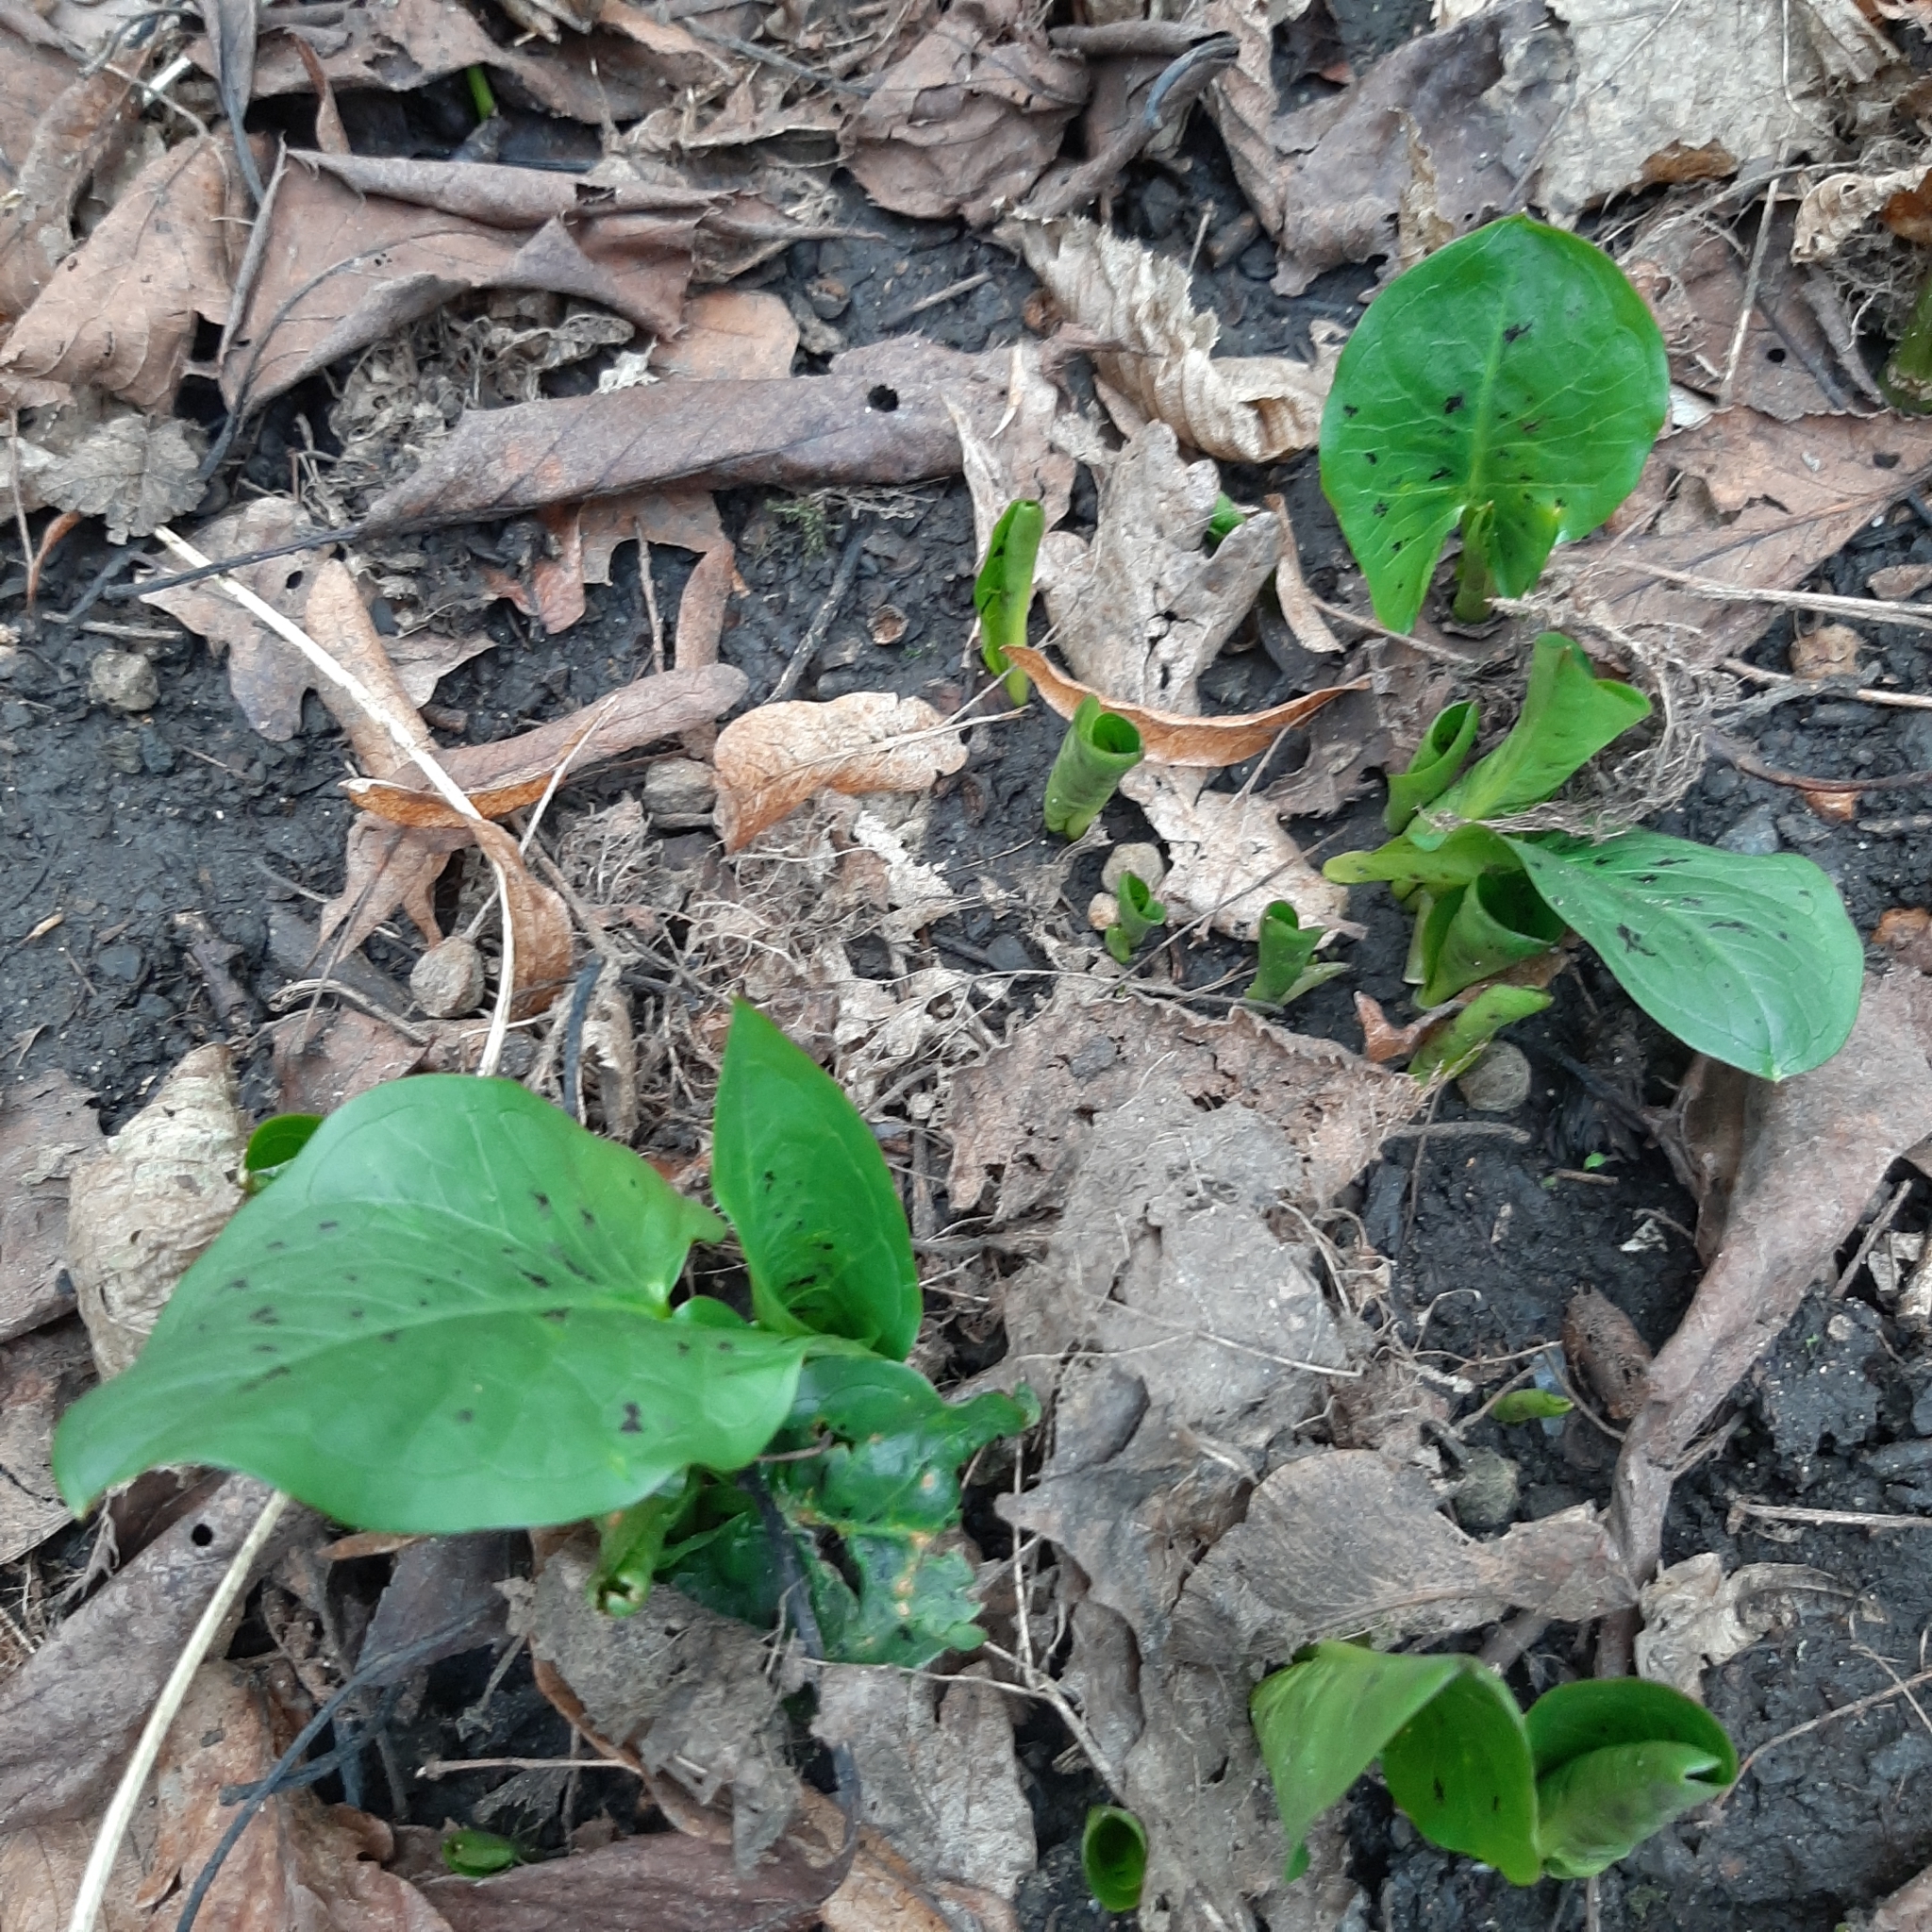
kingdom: Plantae
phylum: Tracheophyta
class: Liliopsida
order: Alismatales
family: Araceae
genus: Arum
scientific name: Arum maculatum
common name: Lords-and-ladies
